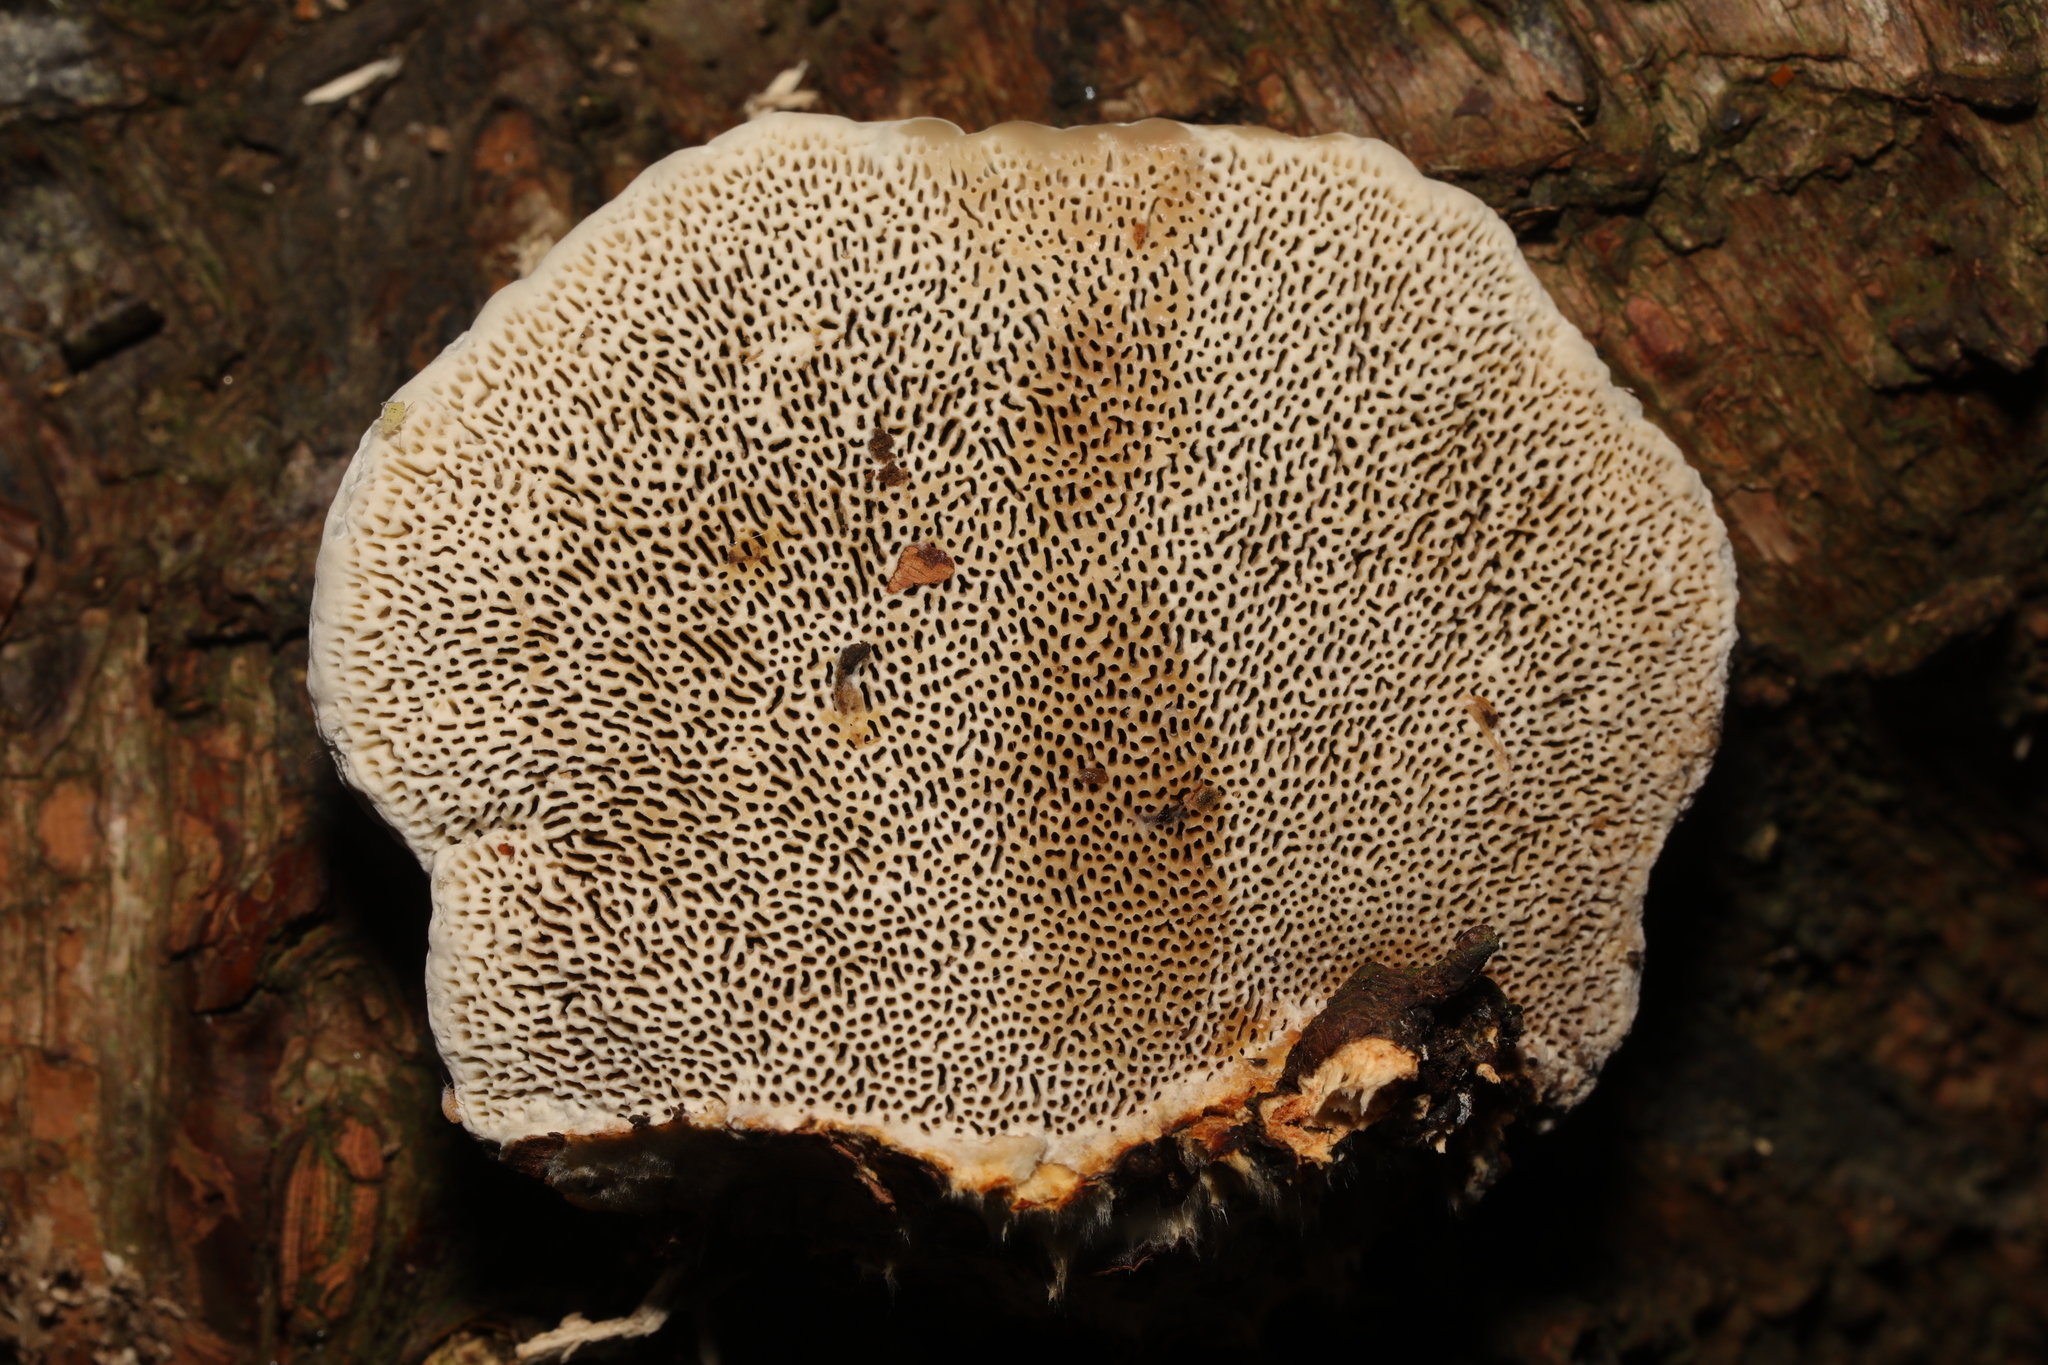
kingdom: Fungi
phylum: Basidiomycota
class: Agaricomycetes
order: Polyporales
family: Polyporaceae
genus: Daedaleopsis
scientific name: Daedaleopsis confragosa
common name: Blushing bracket
